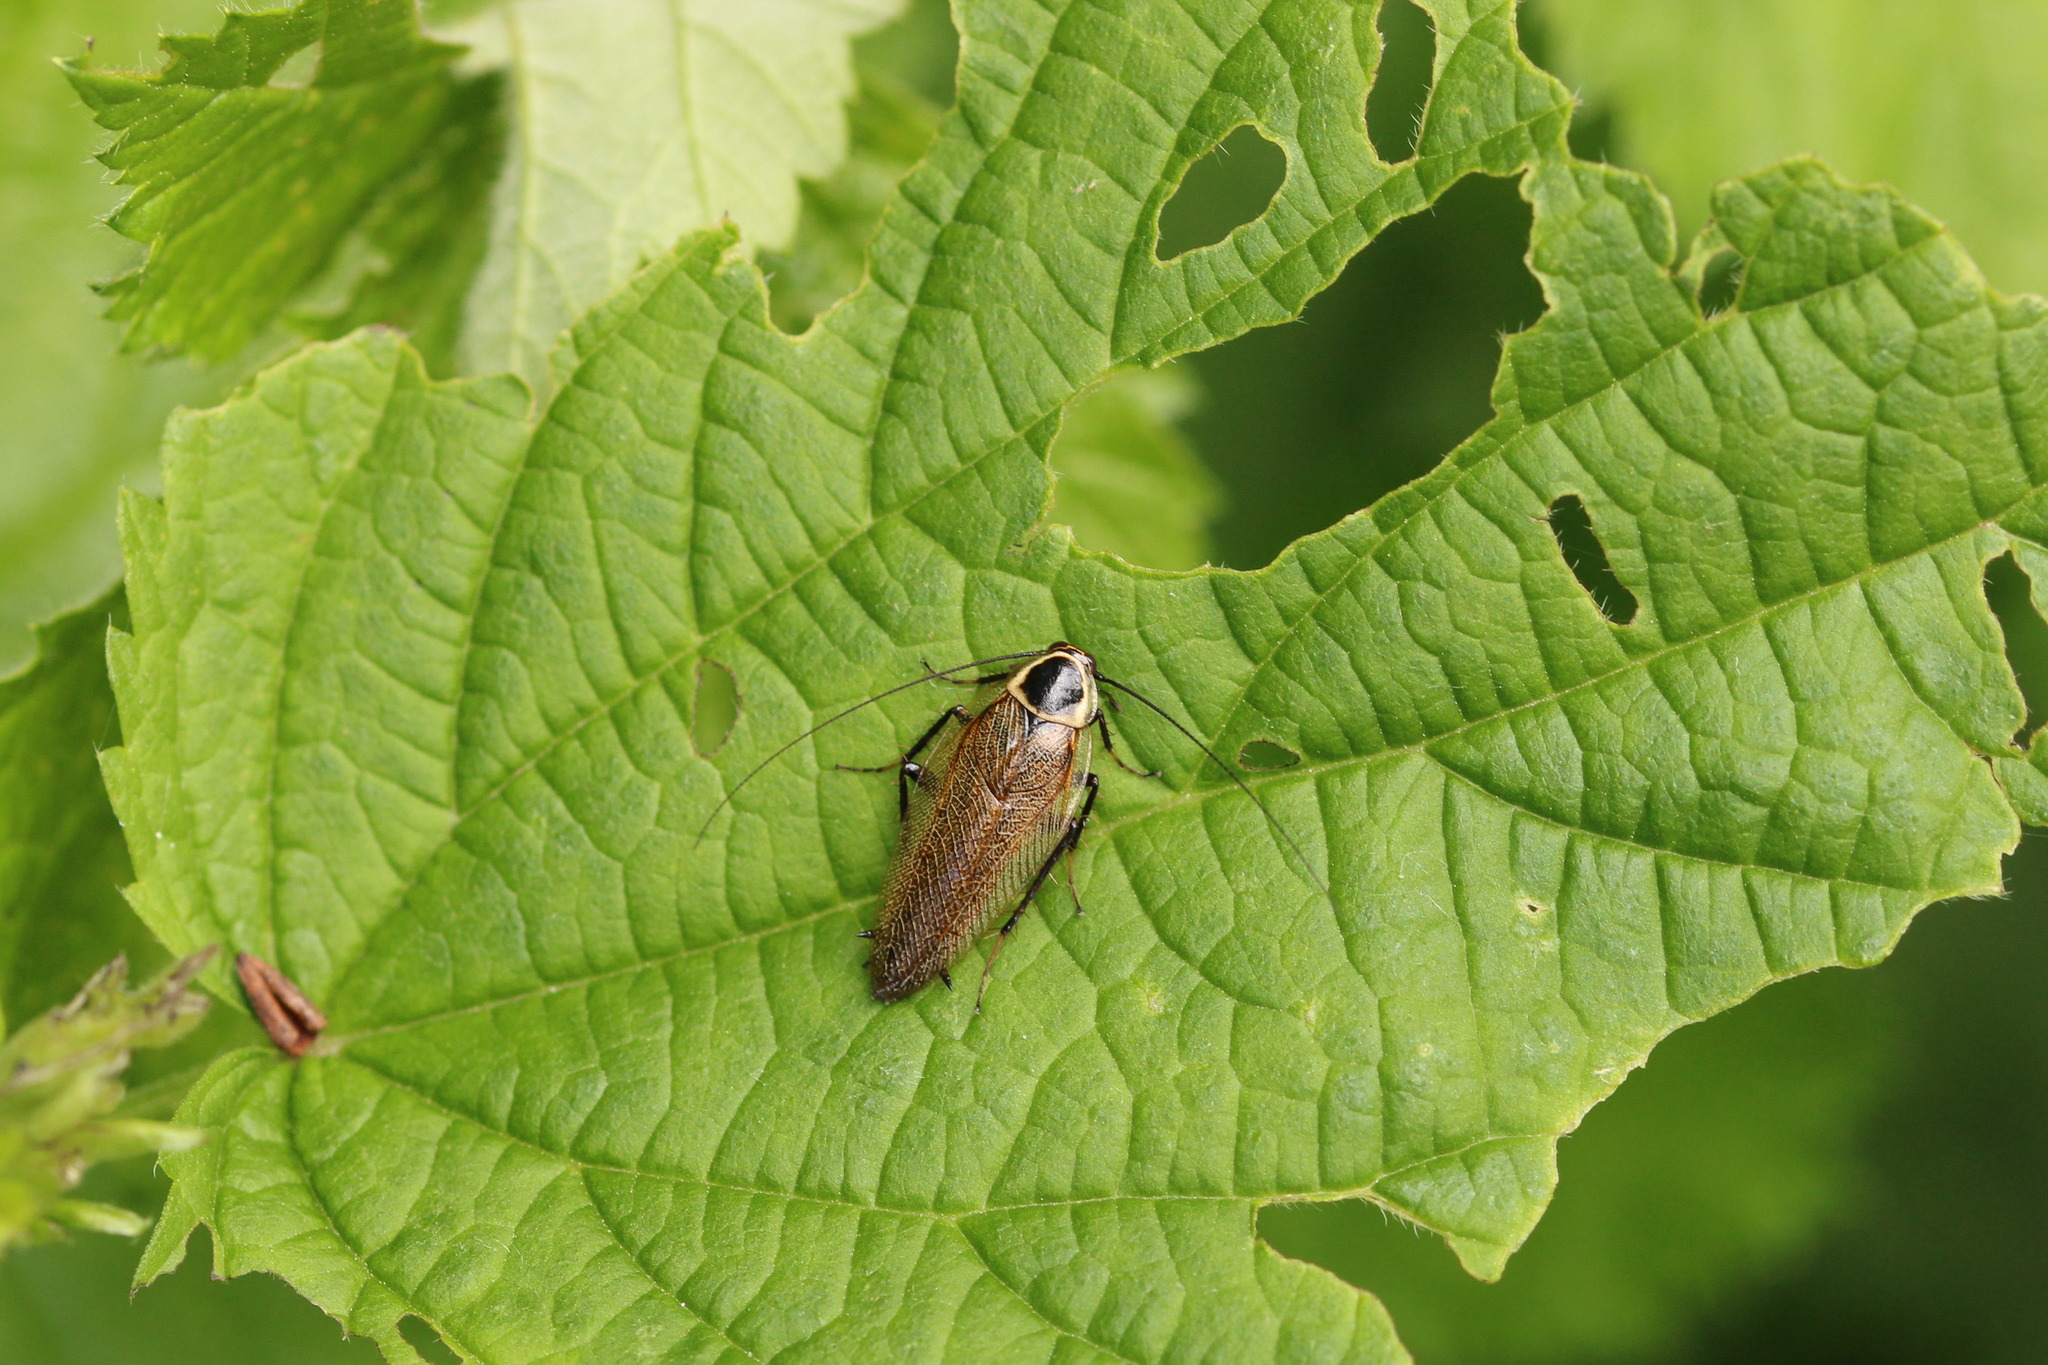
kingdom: Animalia
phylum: Arthropoda
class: Insecta
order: Blattodea
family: Ectobiidae
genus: Ectobius
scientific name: Ectobius sylvestris
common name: Forest cockroach
